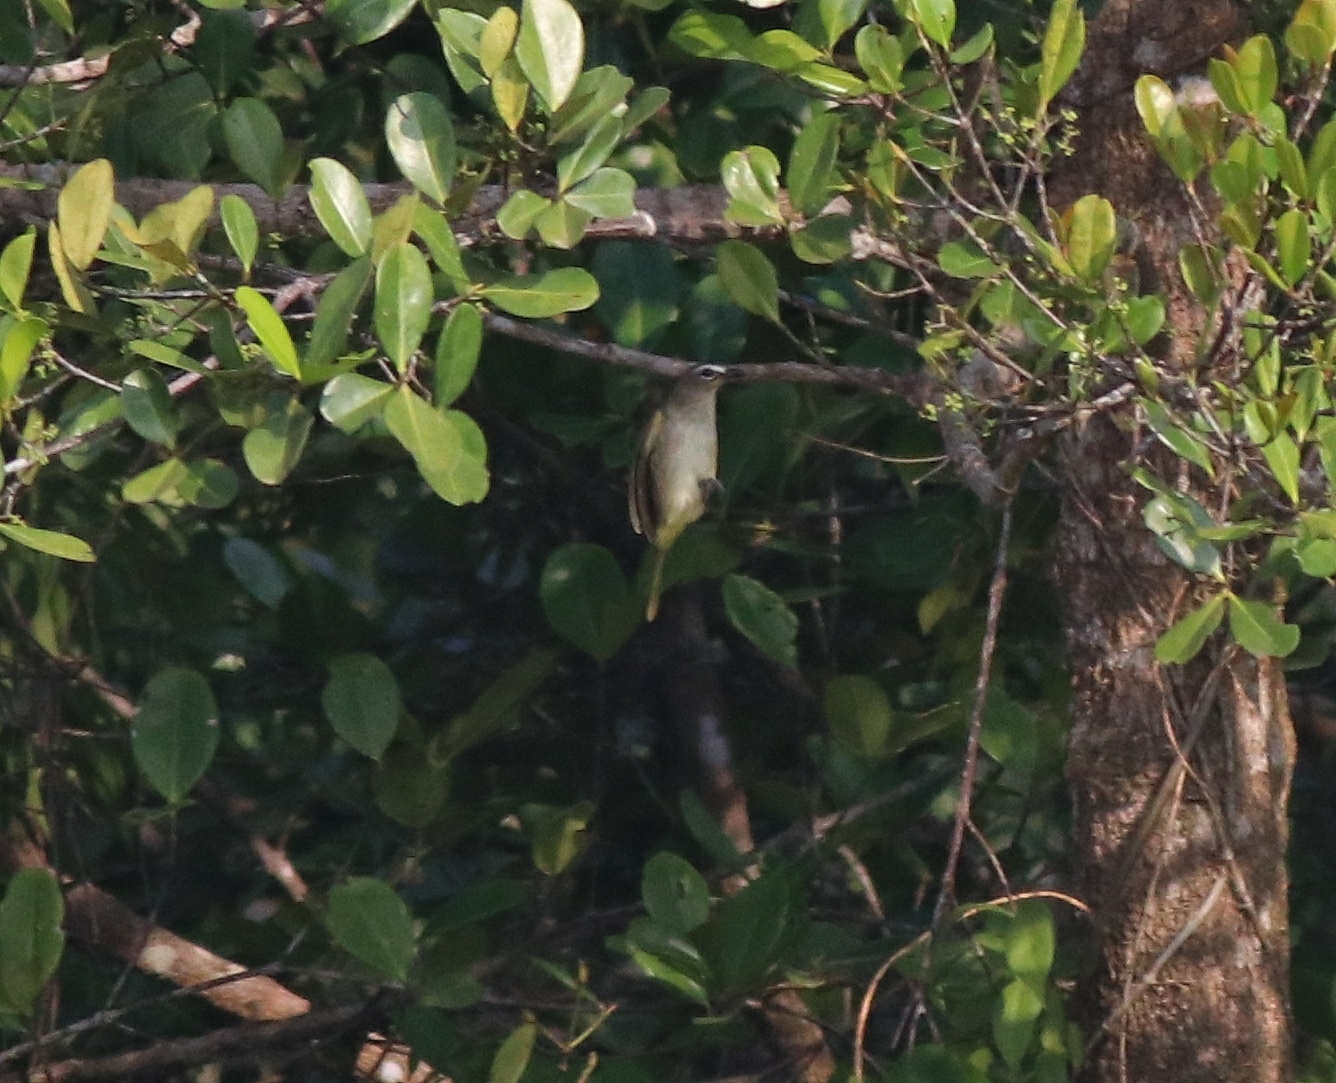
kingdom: Animalia
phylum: Chordata
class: Aves
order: Passeriformes
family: Pycnonotidae
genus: Pycnonotus
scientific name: Pycnonotus luteolus
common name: White-browed bulbul
